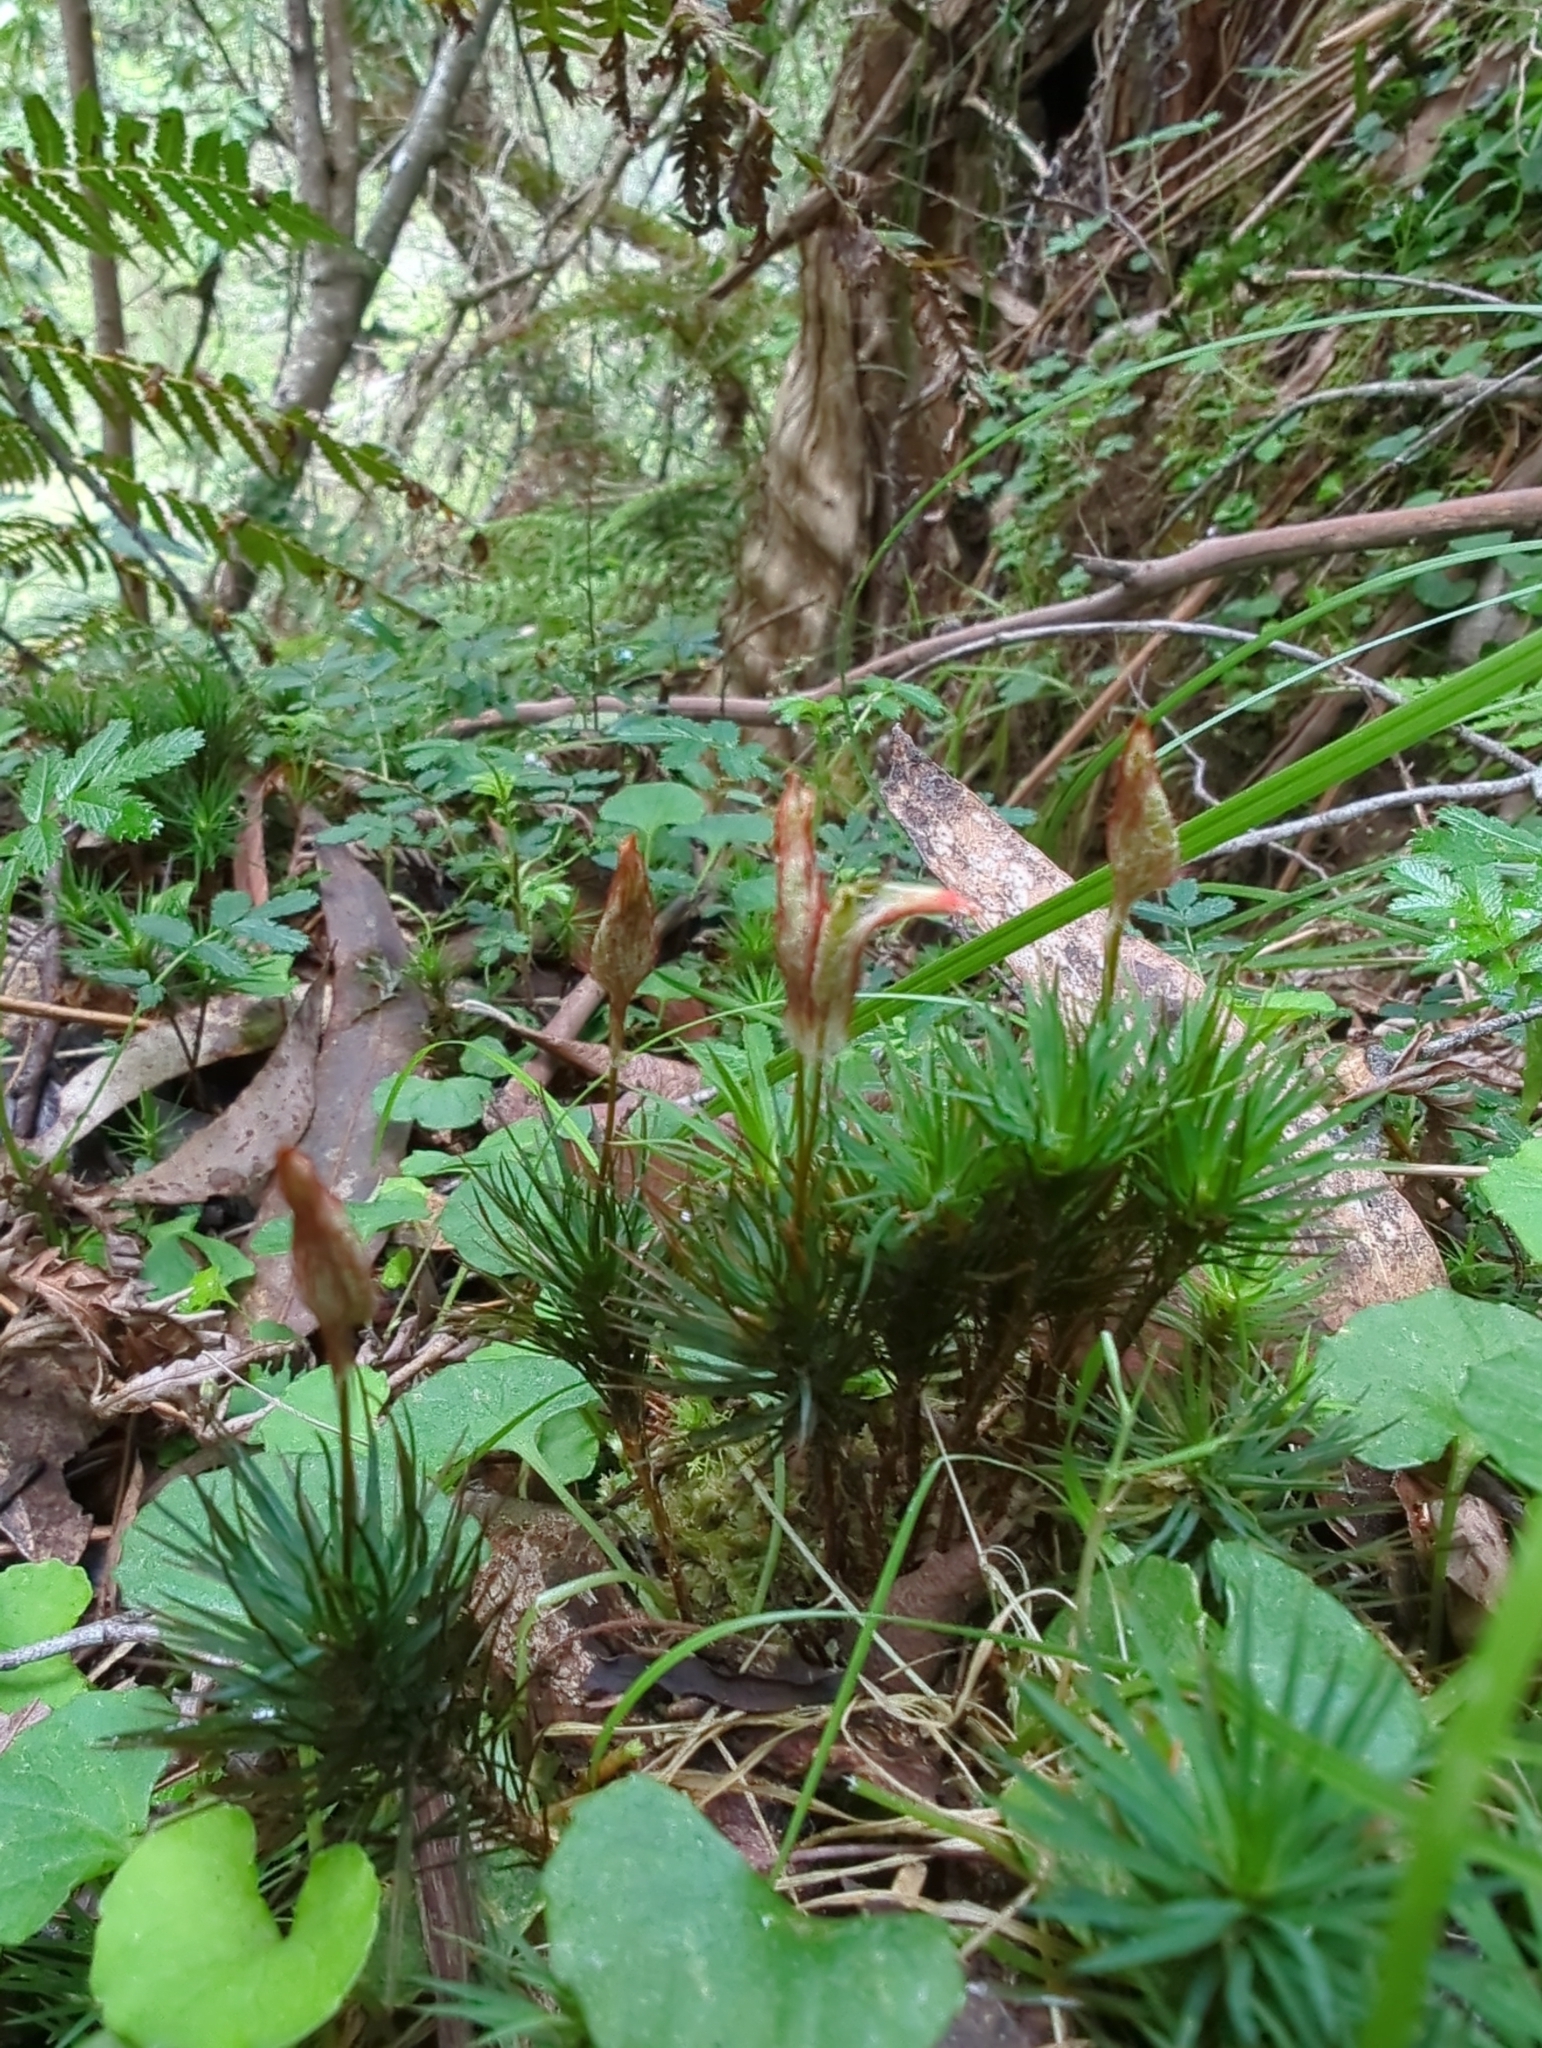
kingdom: Plantae
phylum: Bryophyta
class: Polytrichopsida
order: Polytrichales
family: Polytrichaceae
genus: Dawsonia
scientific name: Dawsonia polytrichoides
